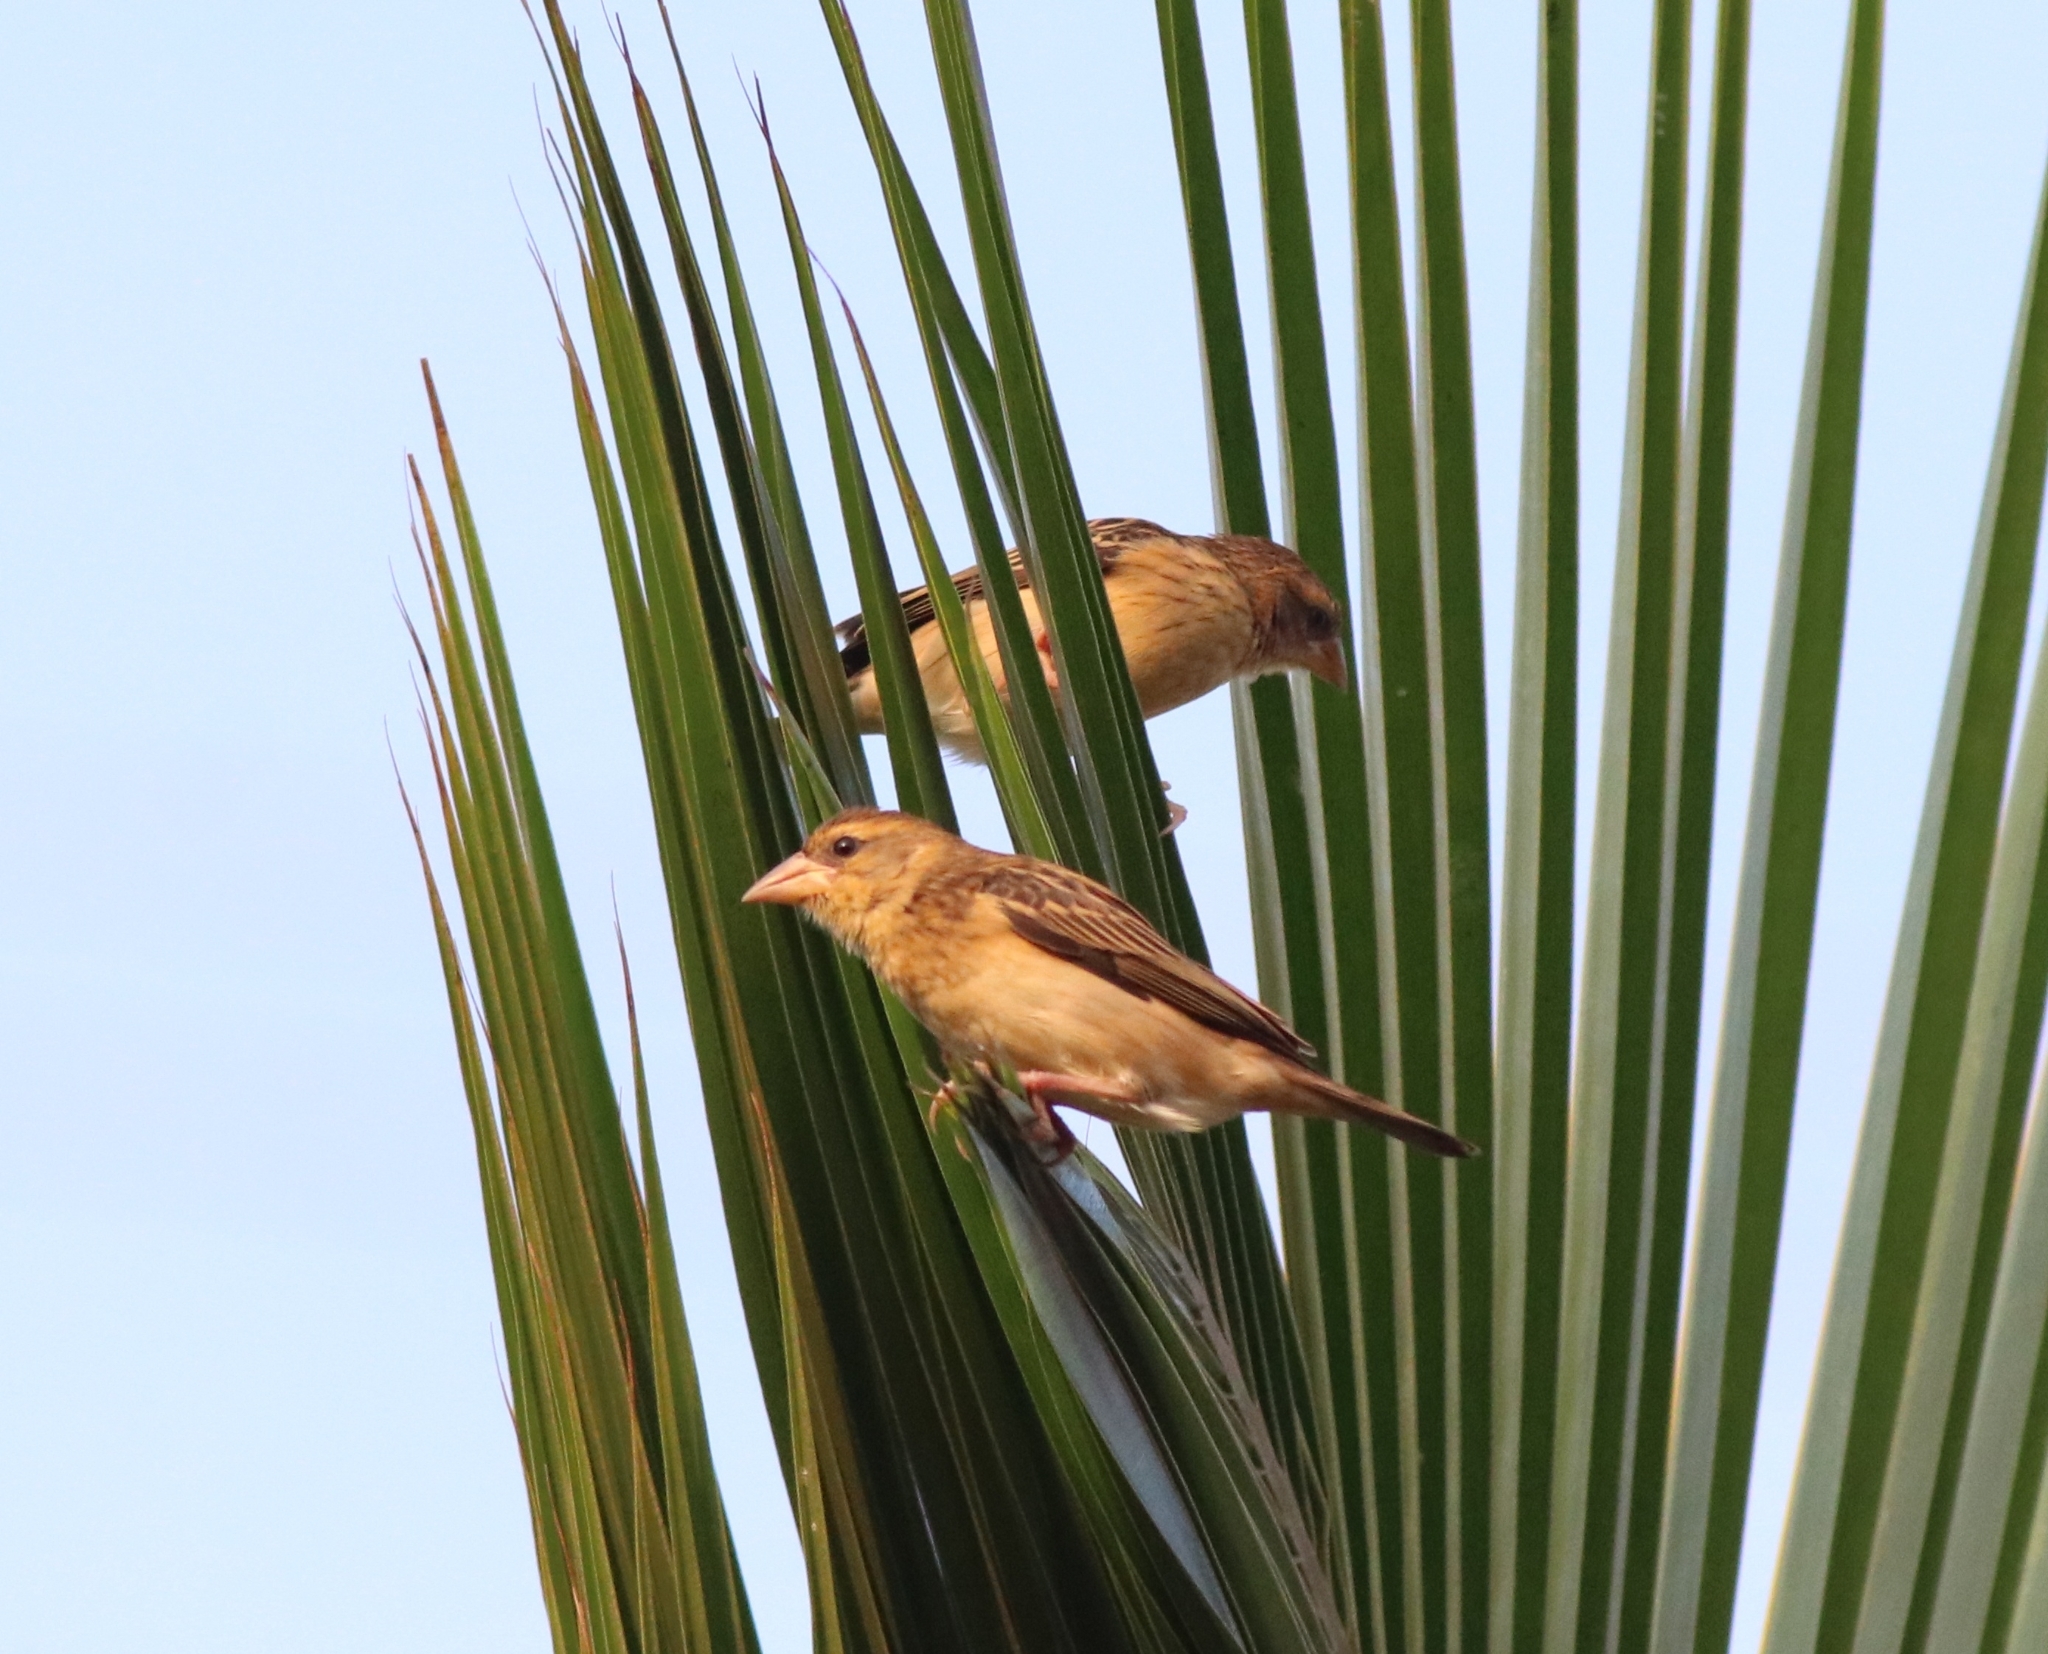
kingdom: Animalia
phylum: Chordata
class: Aves
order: Passeriformes
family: Ploceidae
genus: Ploceus
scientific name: Ploceus philippinus
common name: Baya weaver
